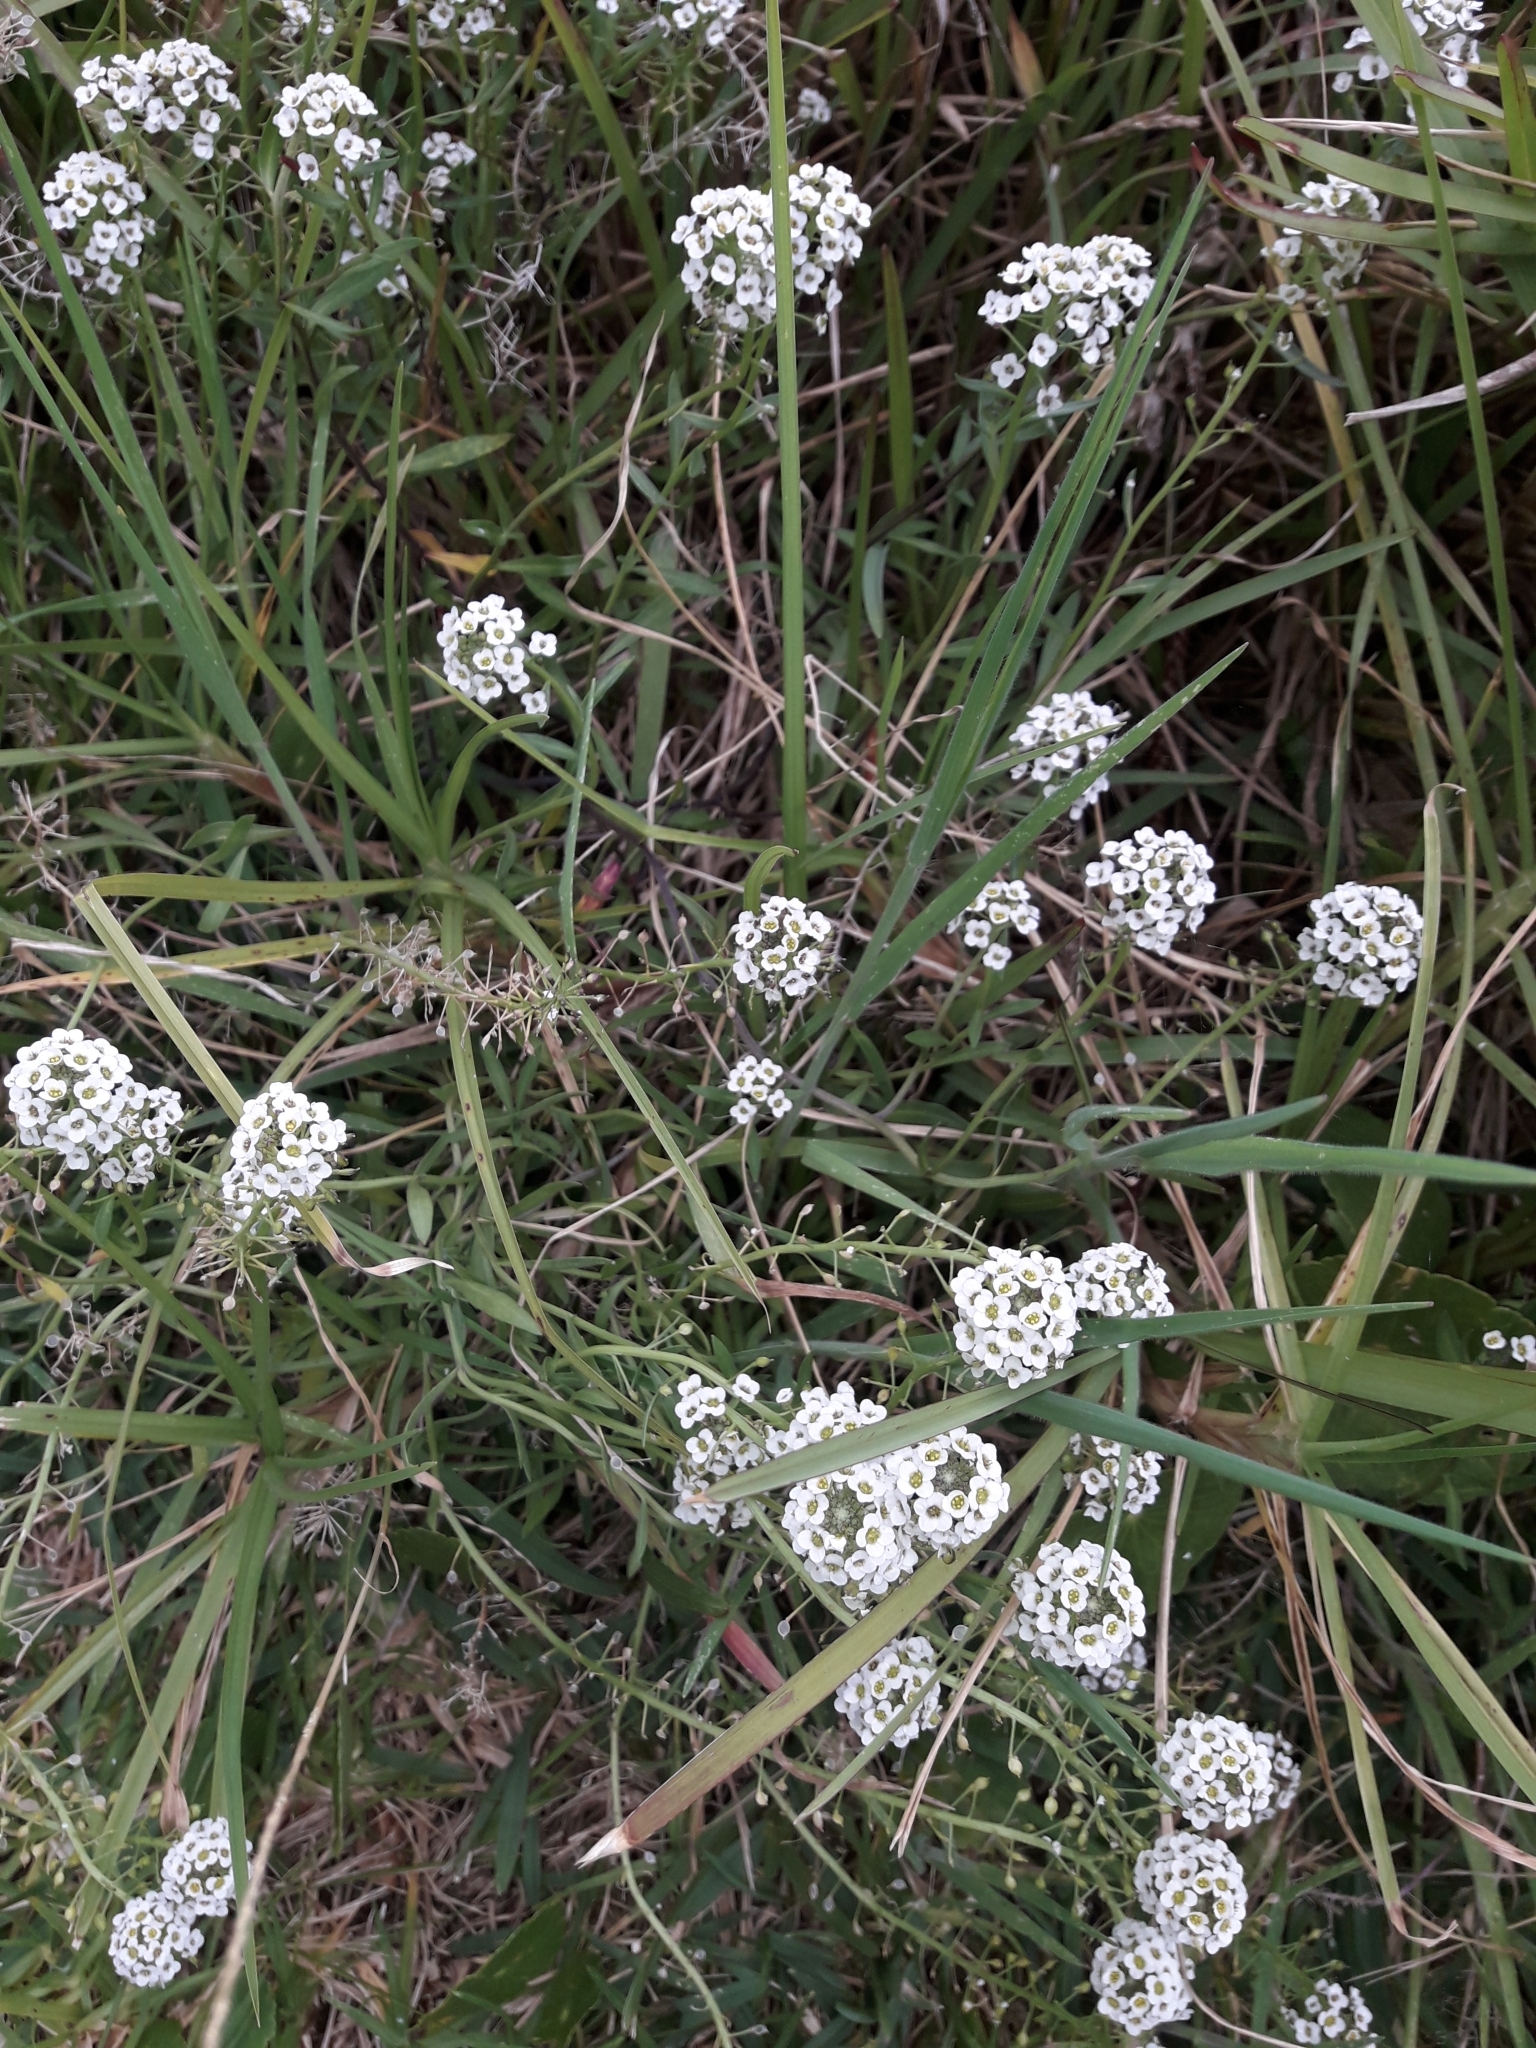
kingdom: Plantae
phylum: Tracheophyta
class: Magnoliopsida
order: Brassicales
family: Brassicaceae
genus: Lobularia
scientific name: Lobularia maritima
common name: Sweet alison
